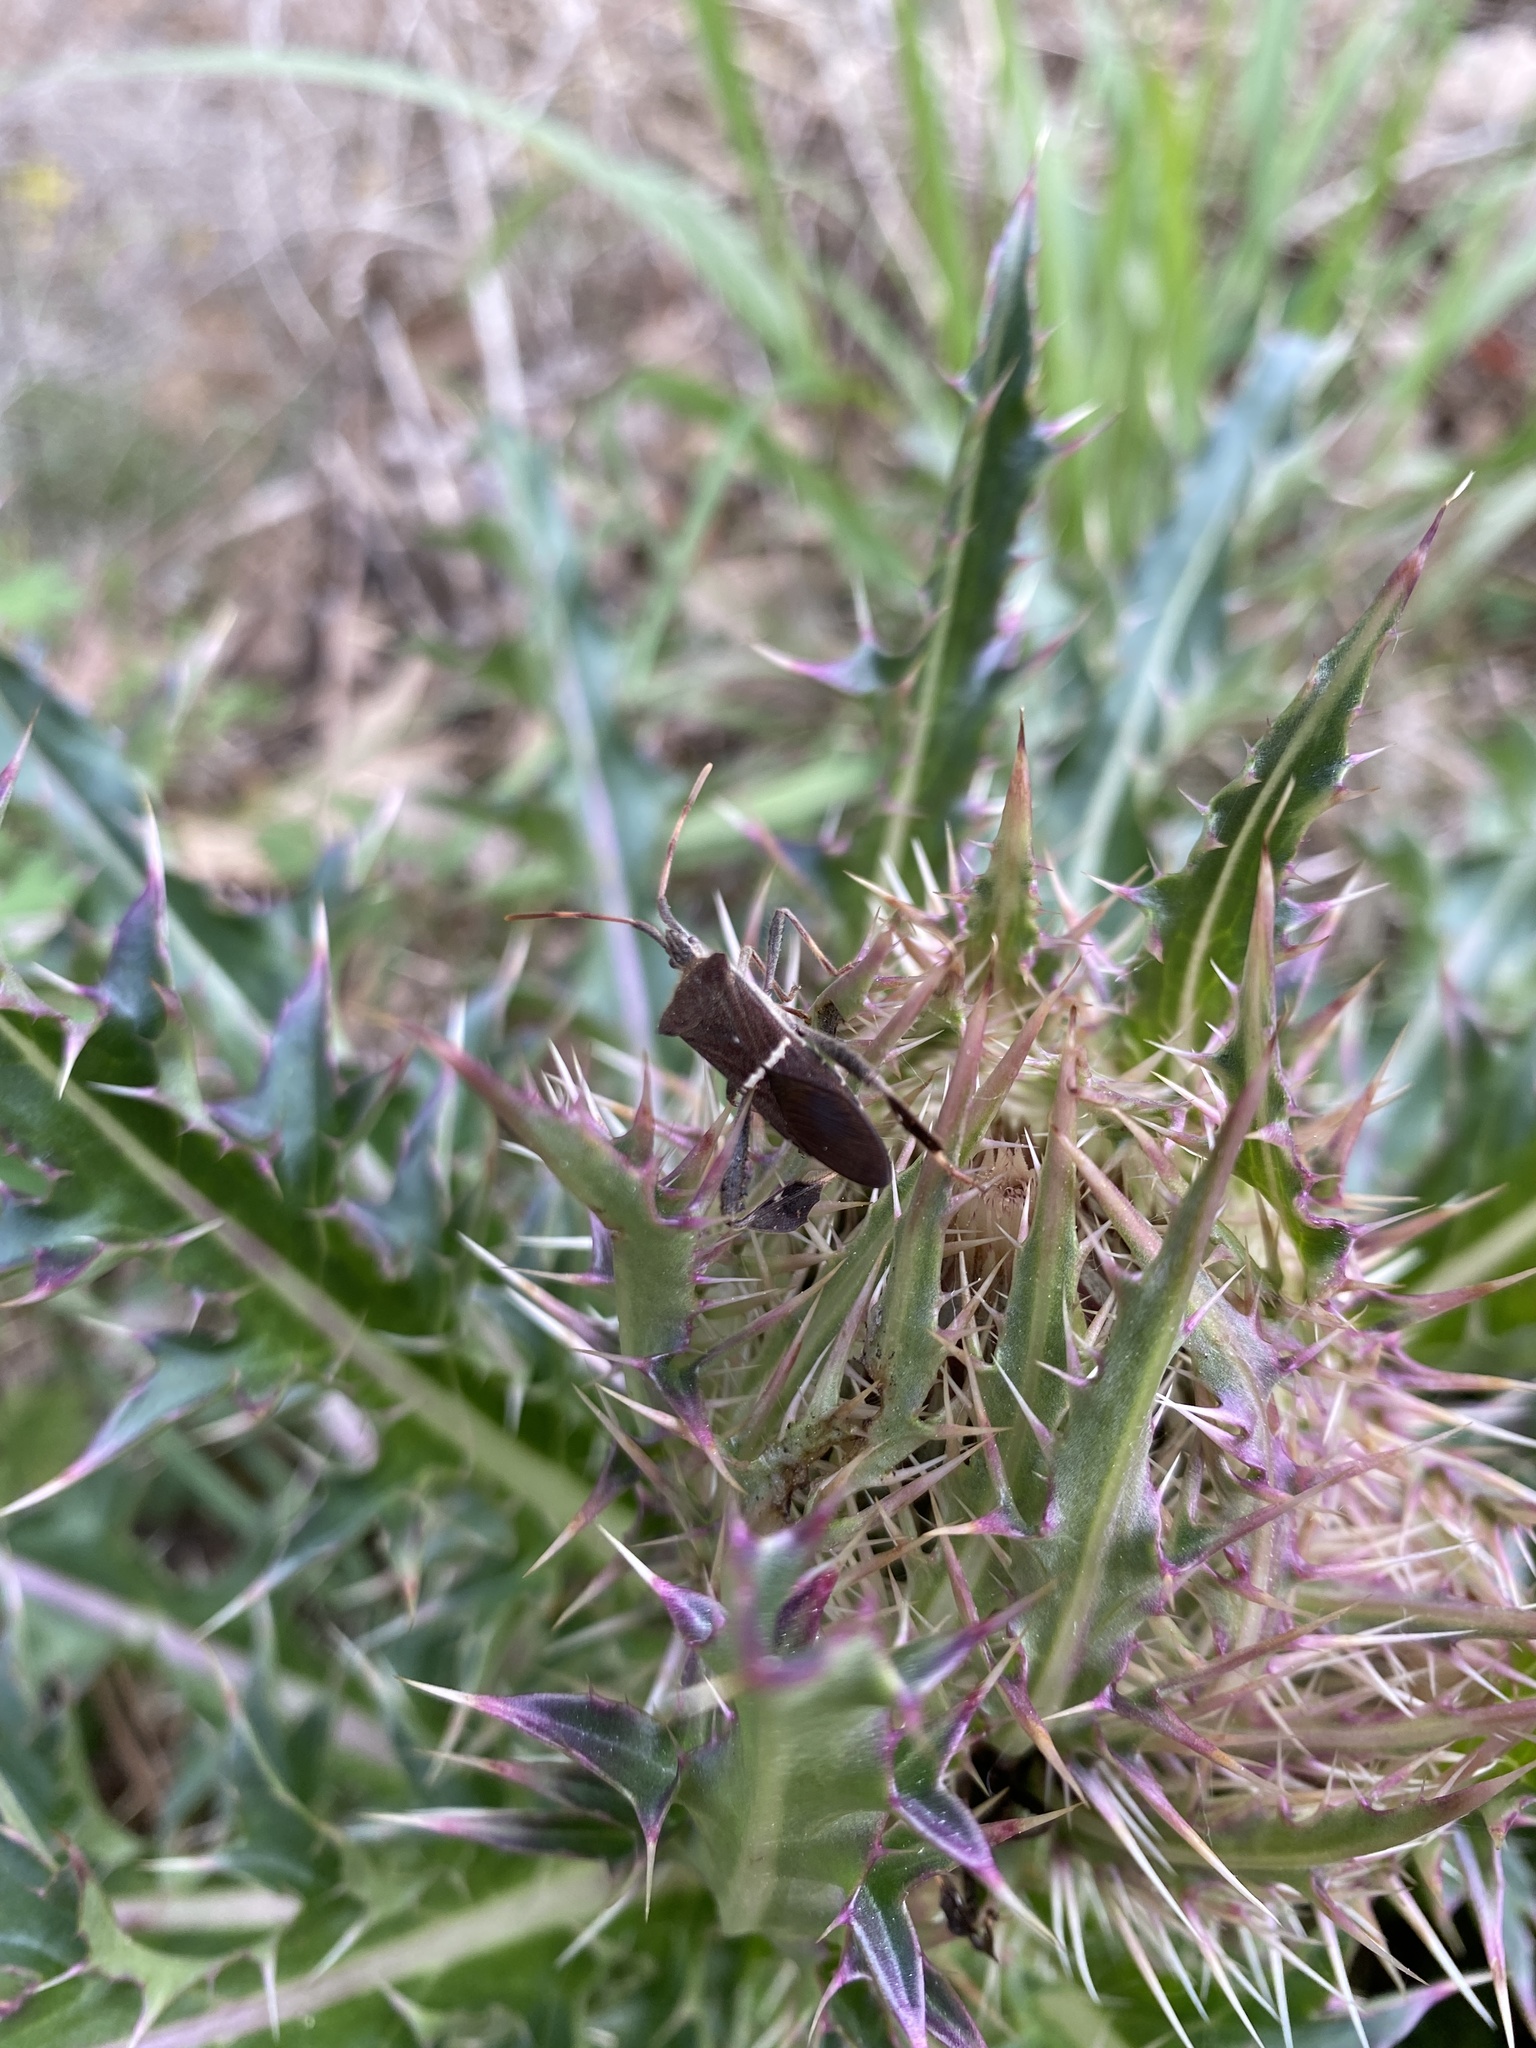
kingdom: Animalia
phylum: Arthropoda
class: Insecta
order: Hemiptera
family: Coreidae
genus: Leptoglossus
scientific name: Leptoglossus phyllopus
